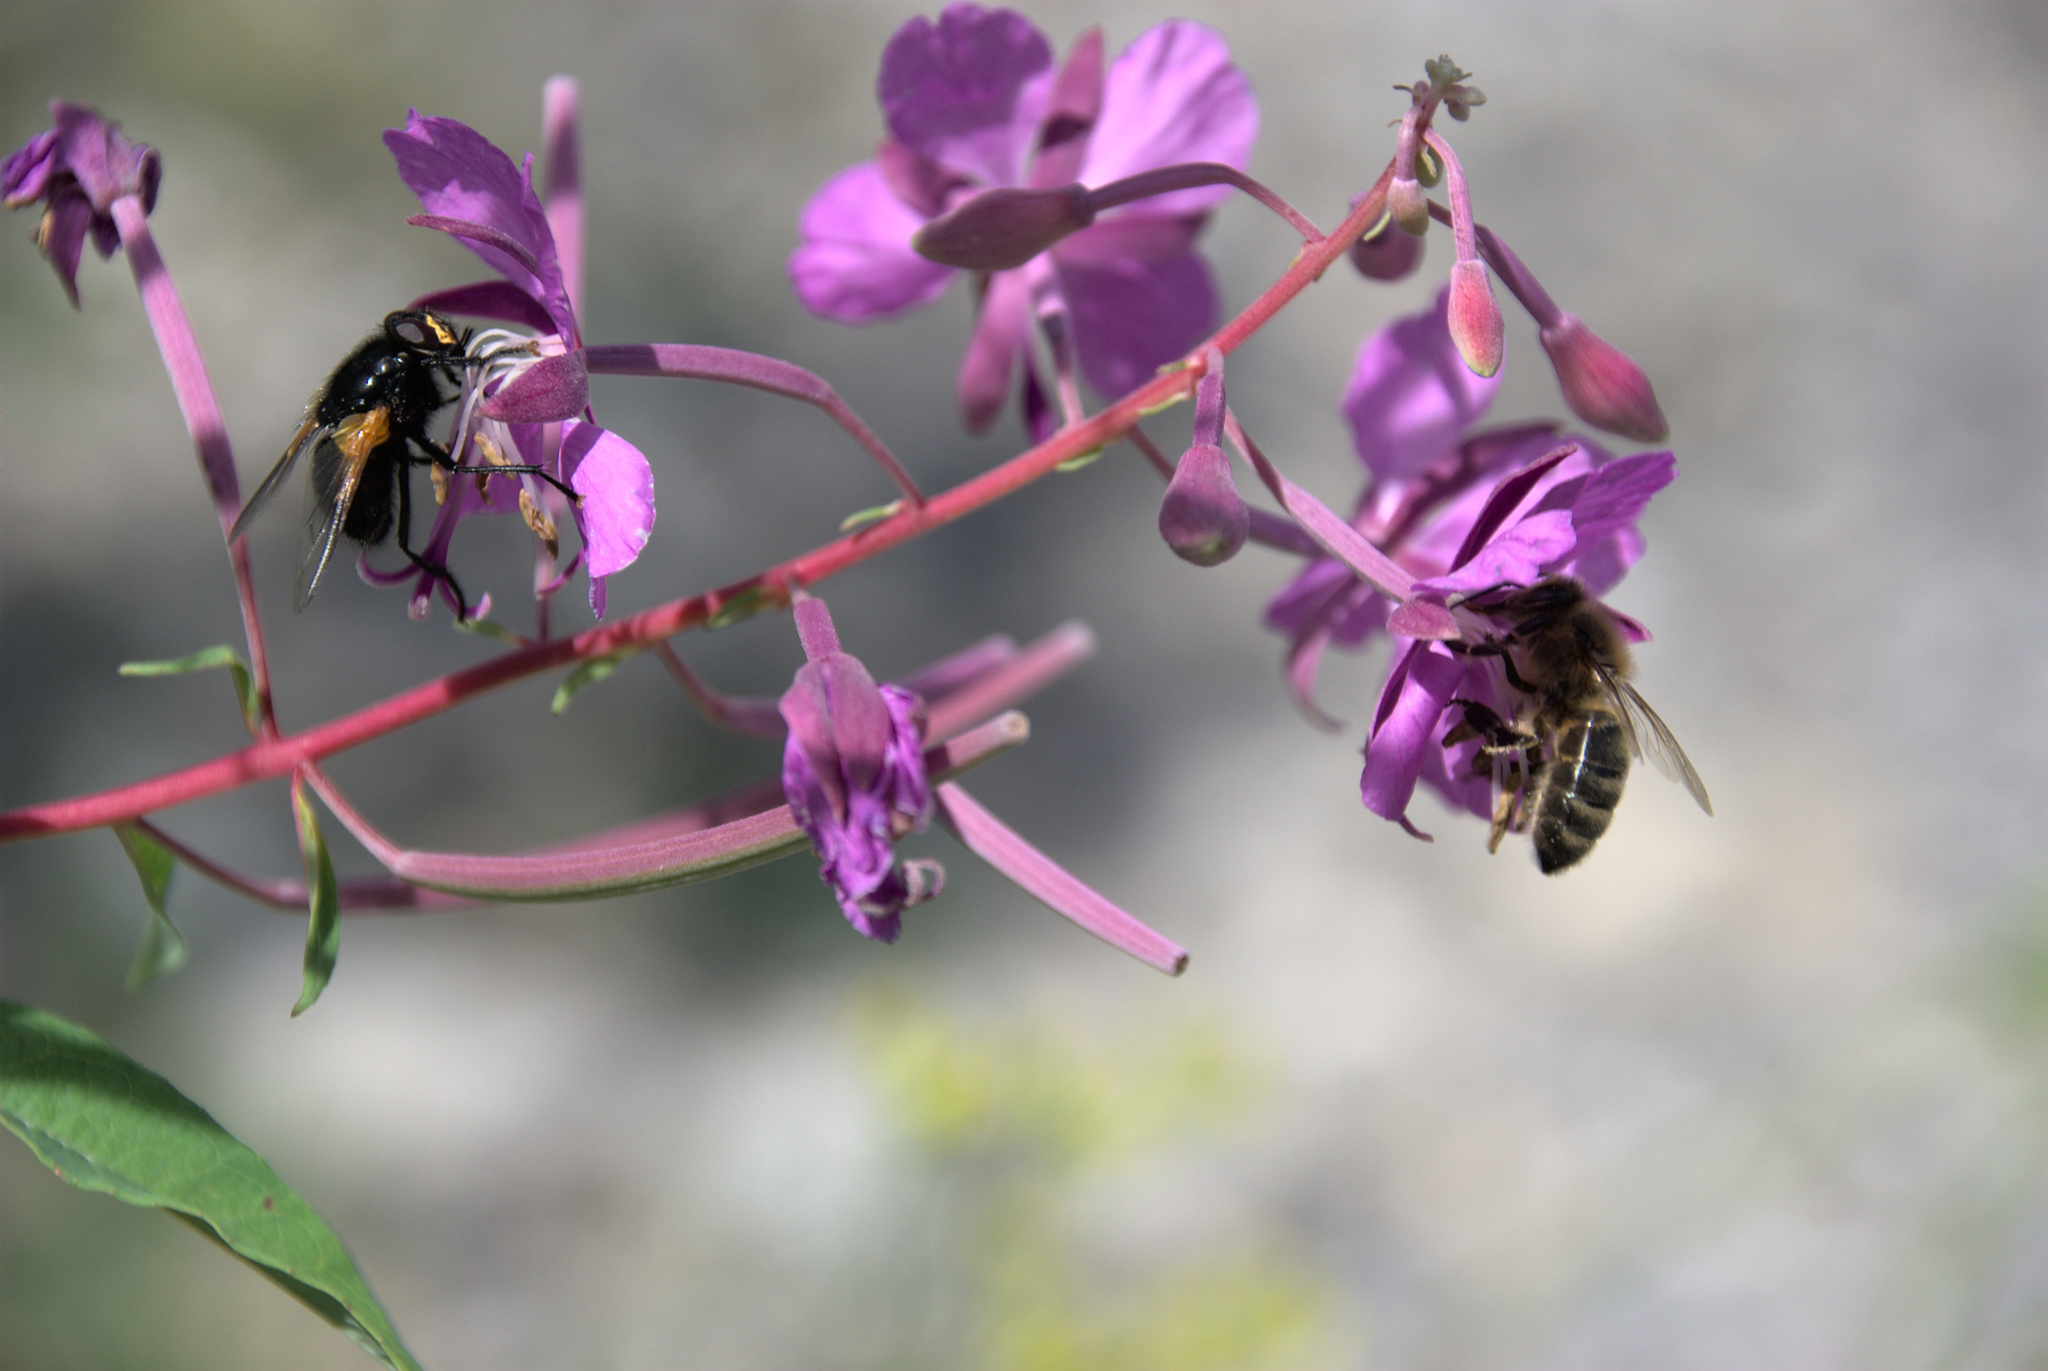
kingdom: Plantae
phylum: Tracheophyta
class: Magnoliopsida
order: Myrtales
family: Onagraceae
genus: Chamaenerion
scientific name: Chamaenerion angustifolium
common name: Fireweed
